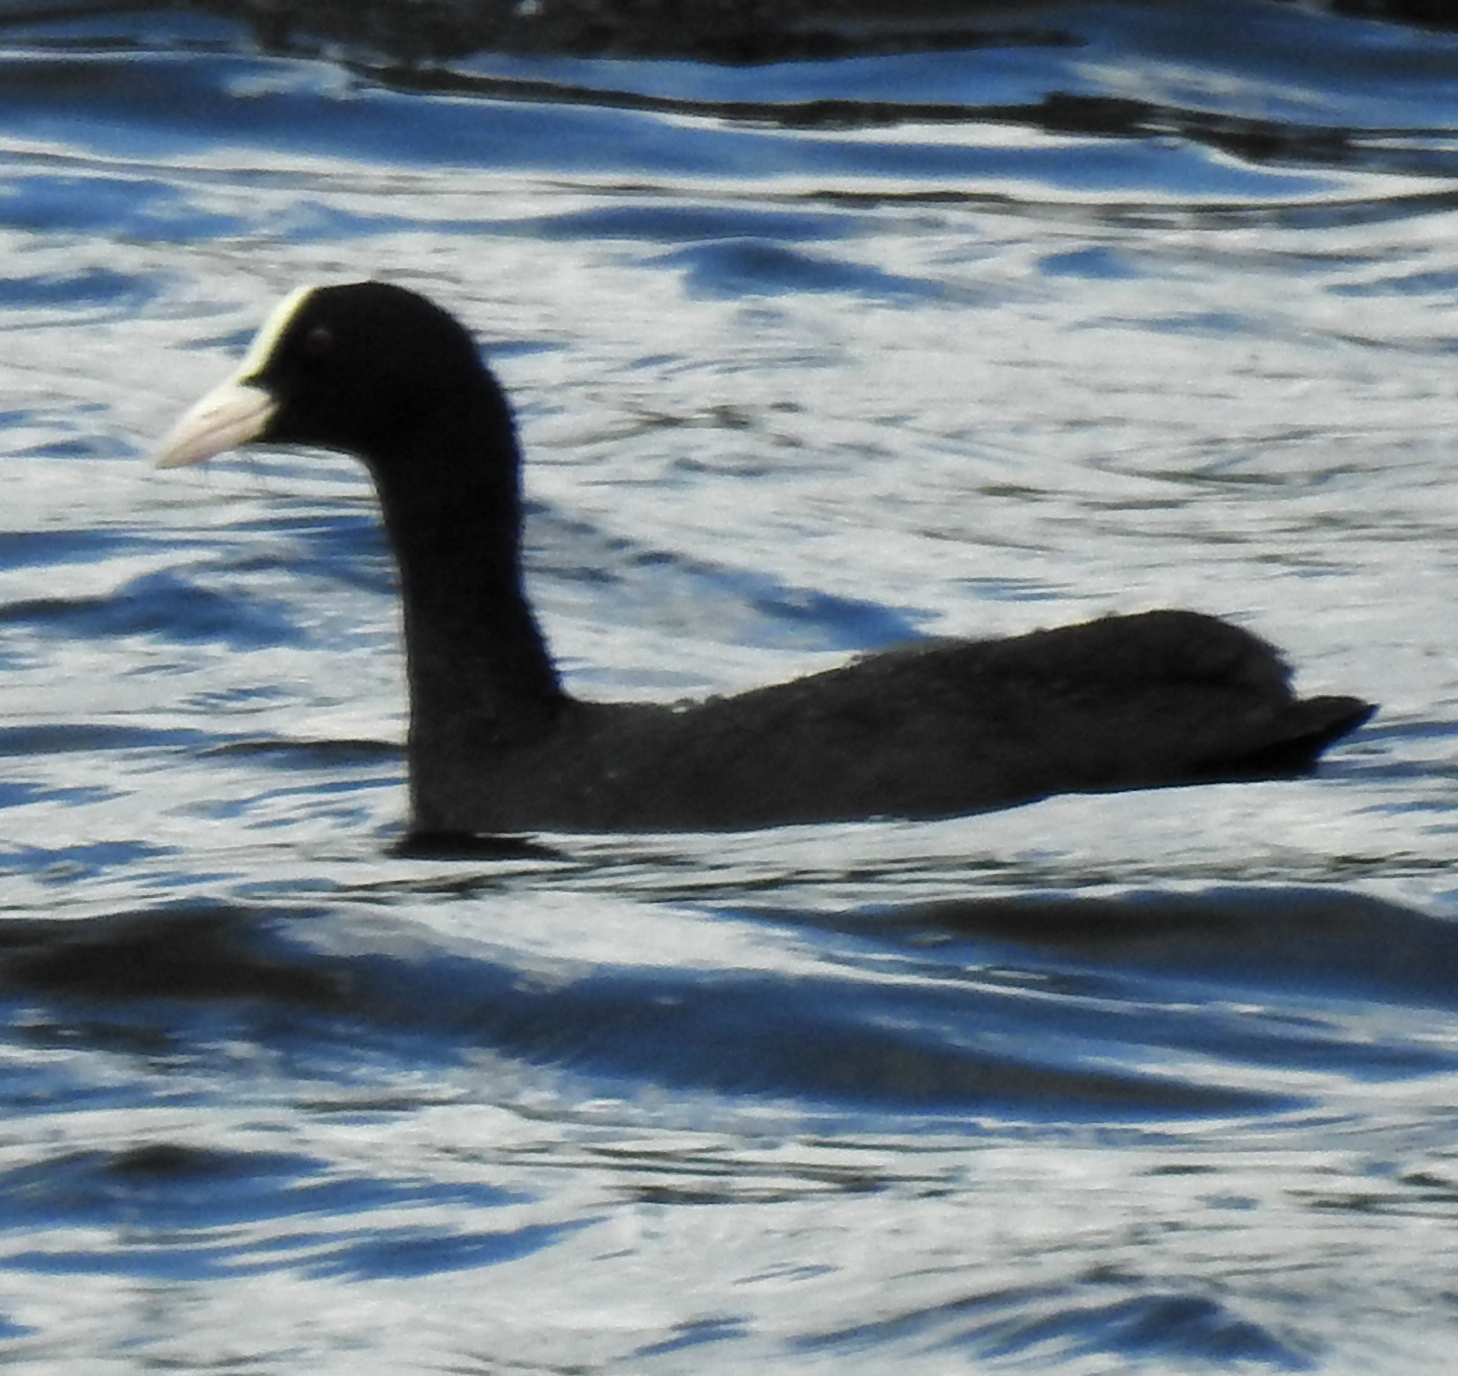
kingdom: Animalia
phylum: Chordata
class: Aves
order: Gruiformes
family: Rallidae
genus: Fulica
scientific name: Fulica atra
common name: Eurasian coot
